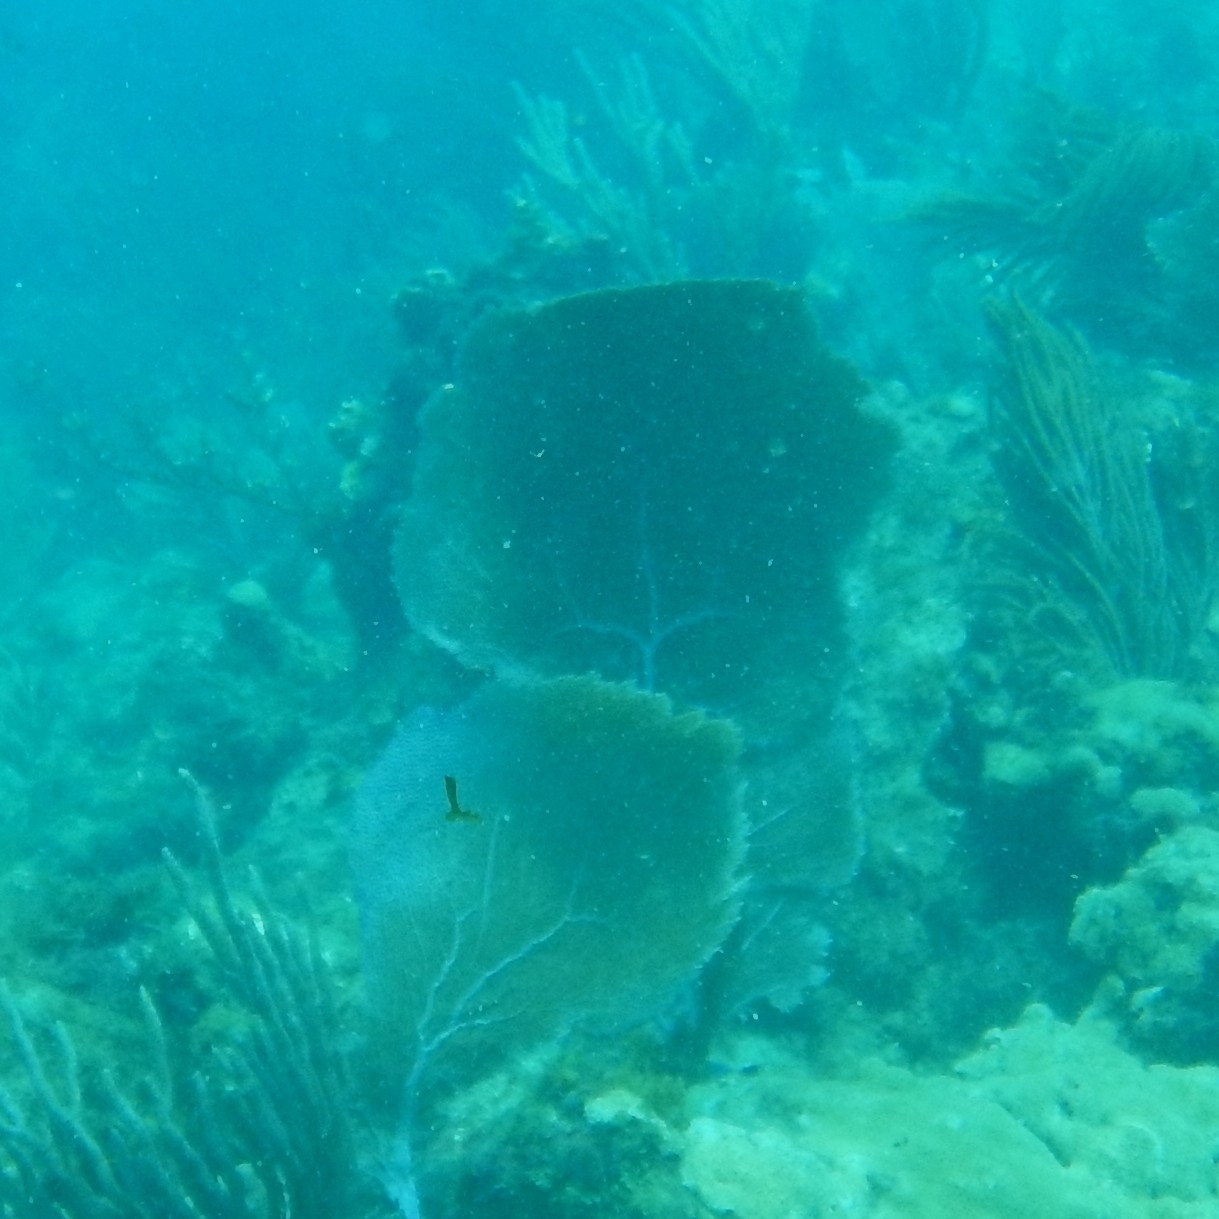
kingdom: Animalia
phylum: Cnidaria
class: Anthozoa
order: Malacalcyonacea
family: Gorgoniidae
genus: Gorgonia
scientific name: Gorgonia ventalina
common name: Common sea fan
